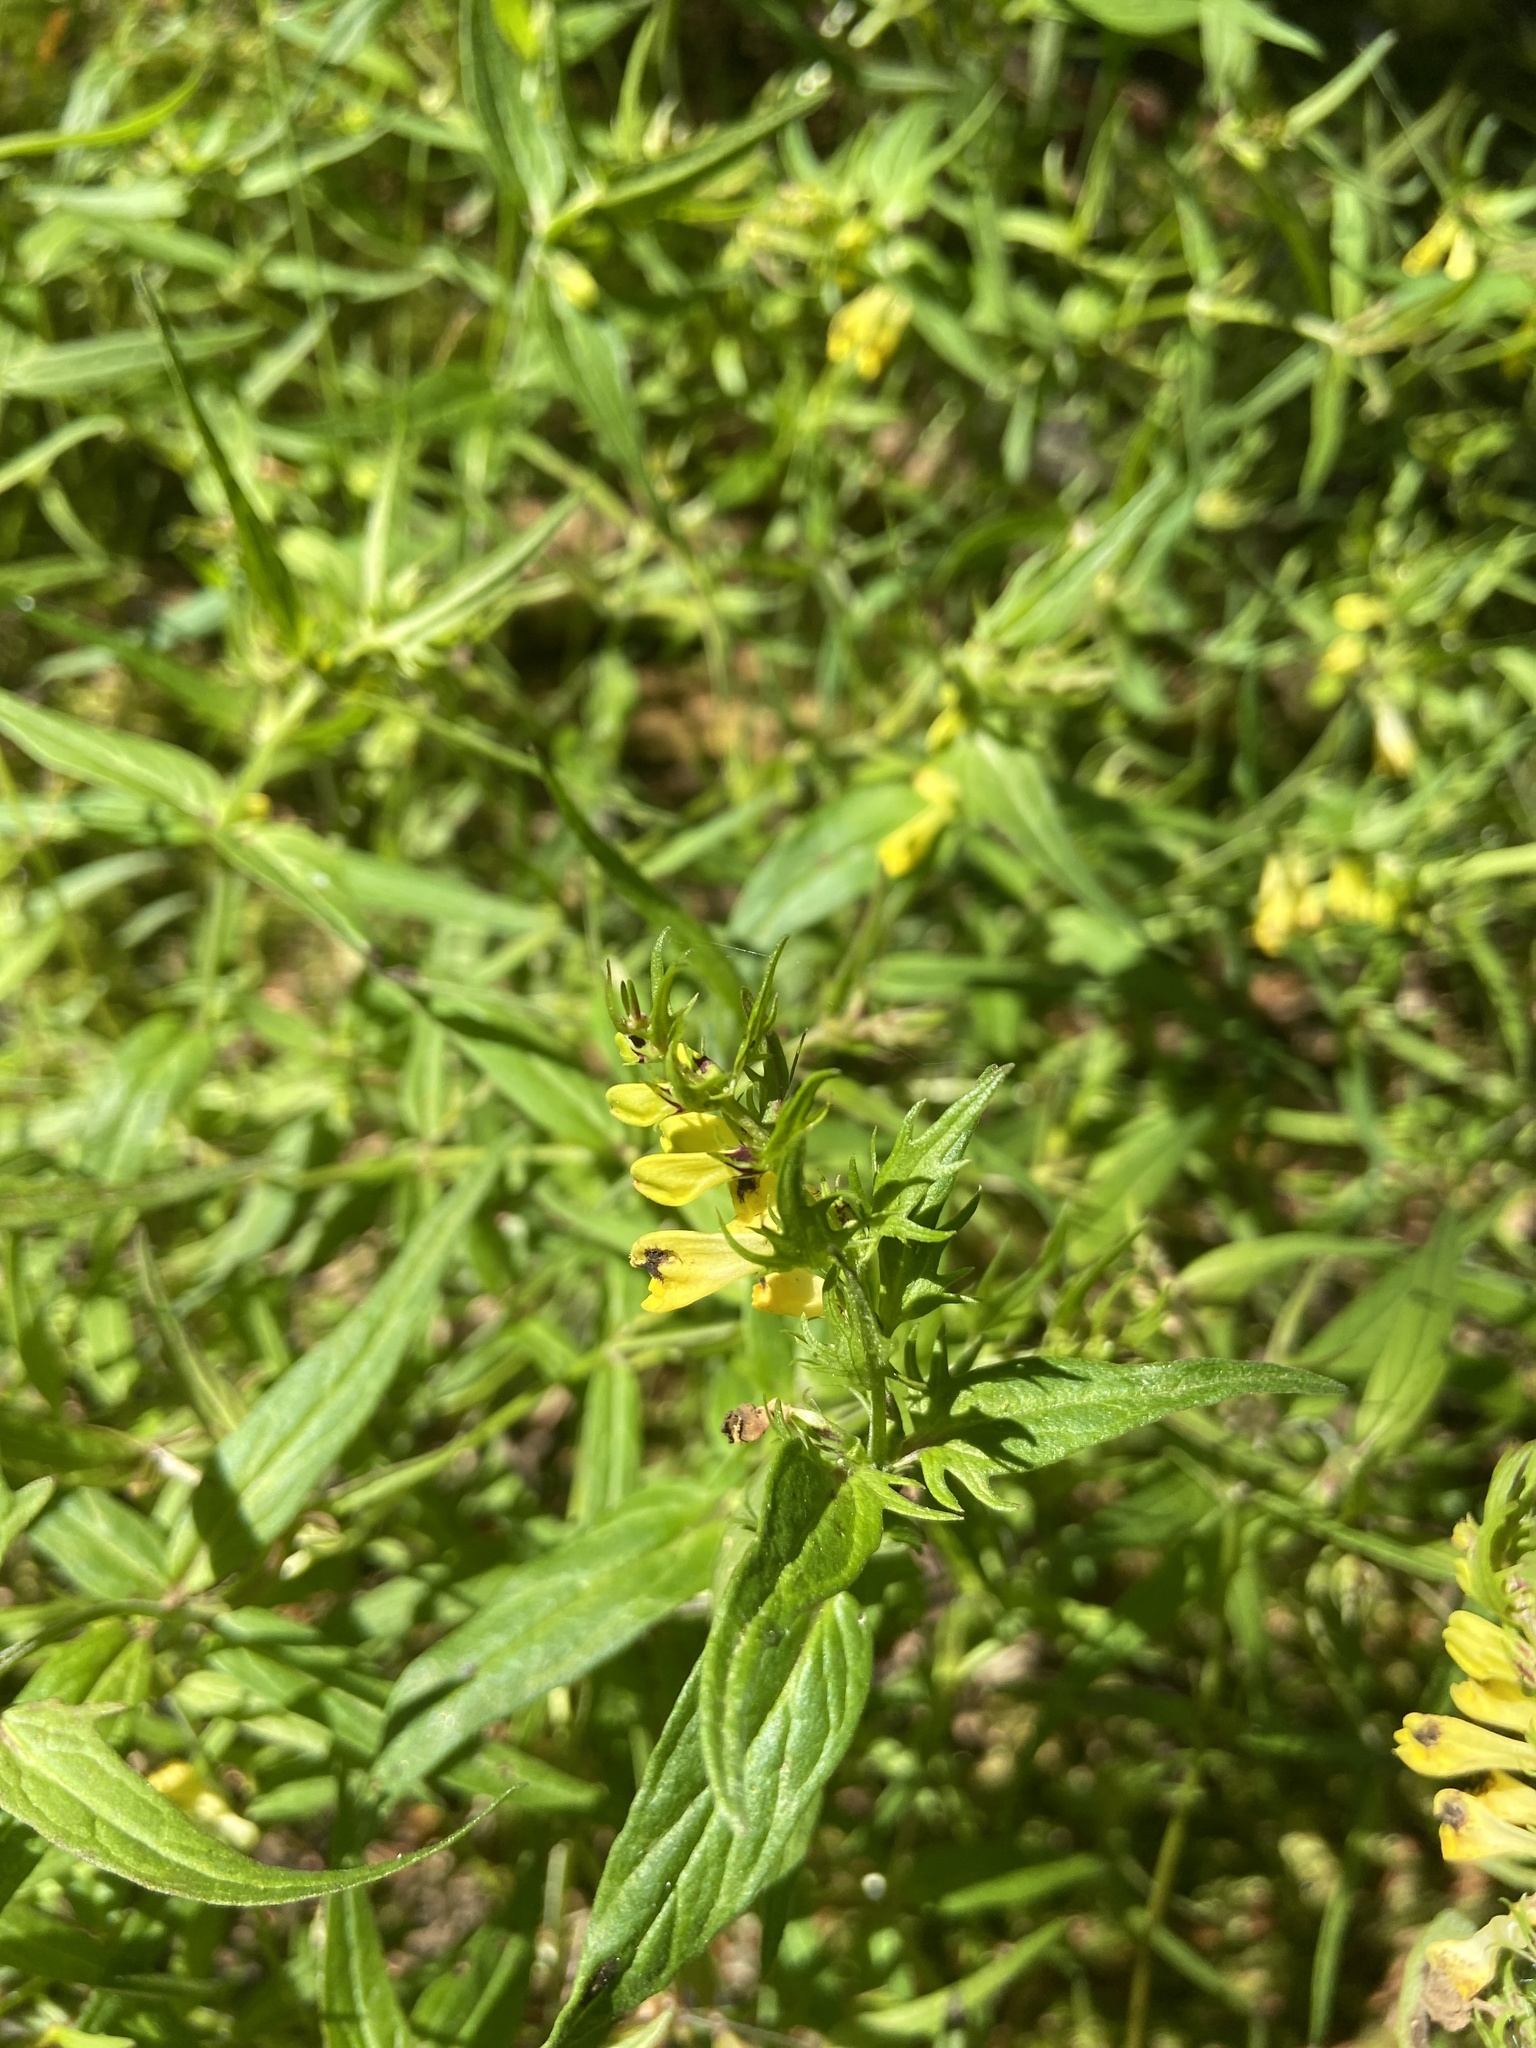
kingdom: Plantae
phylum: Tracheophyta
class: Magnoliopsida
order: Lamiales
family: Orobanchaceae
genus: Melampyrum
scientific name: Melampyrum pratense
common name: Common cow-wheat
